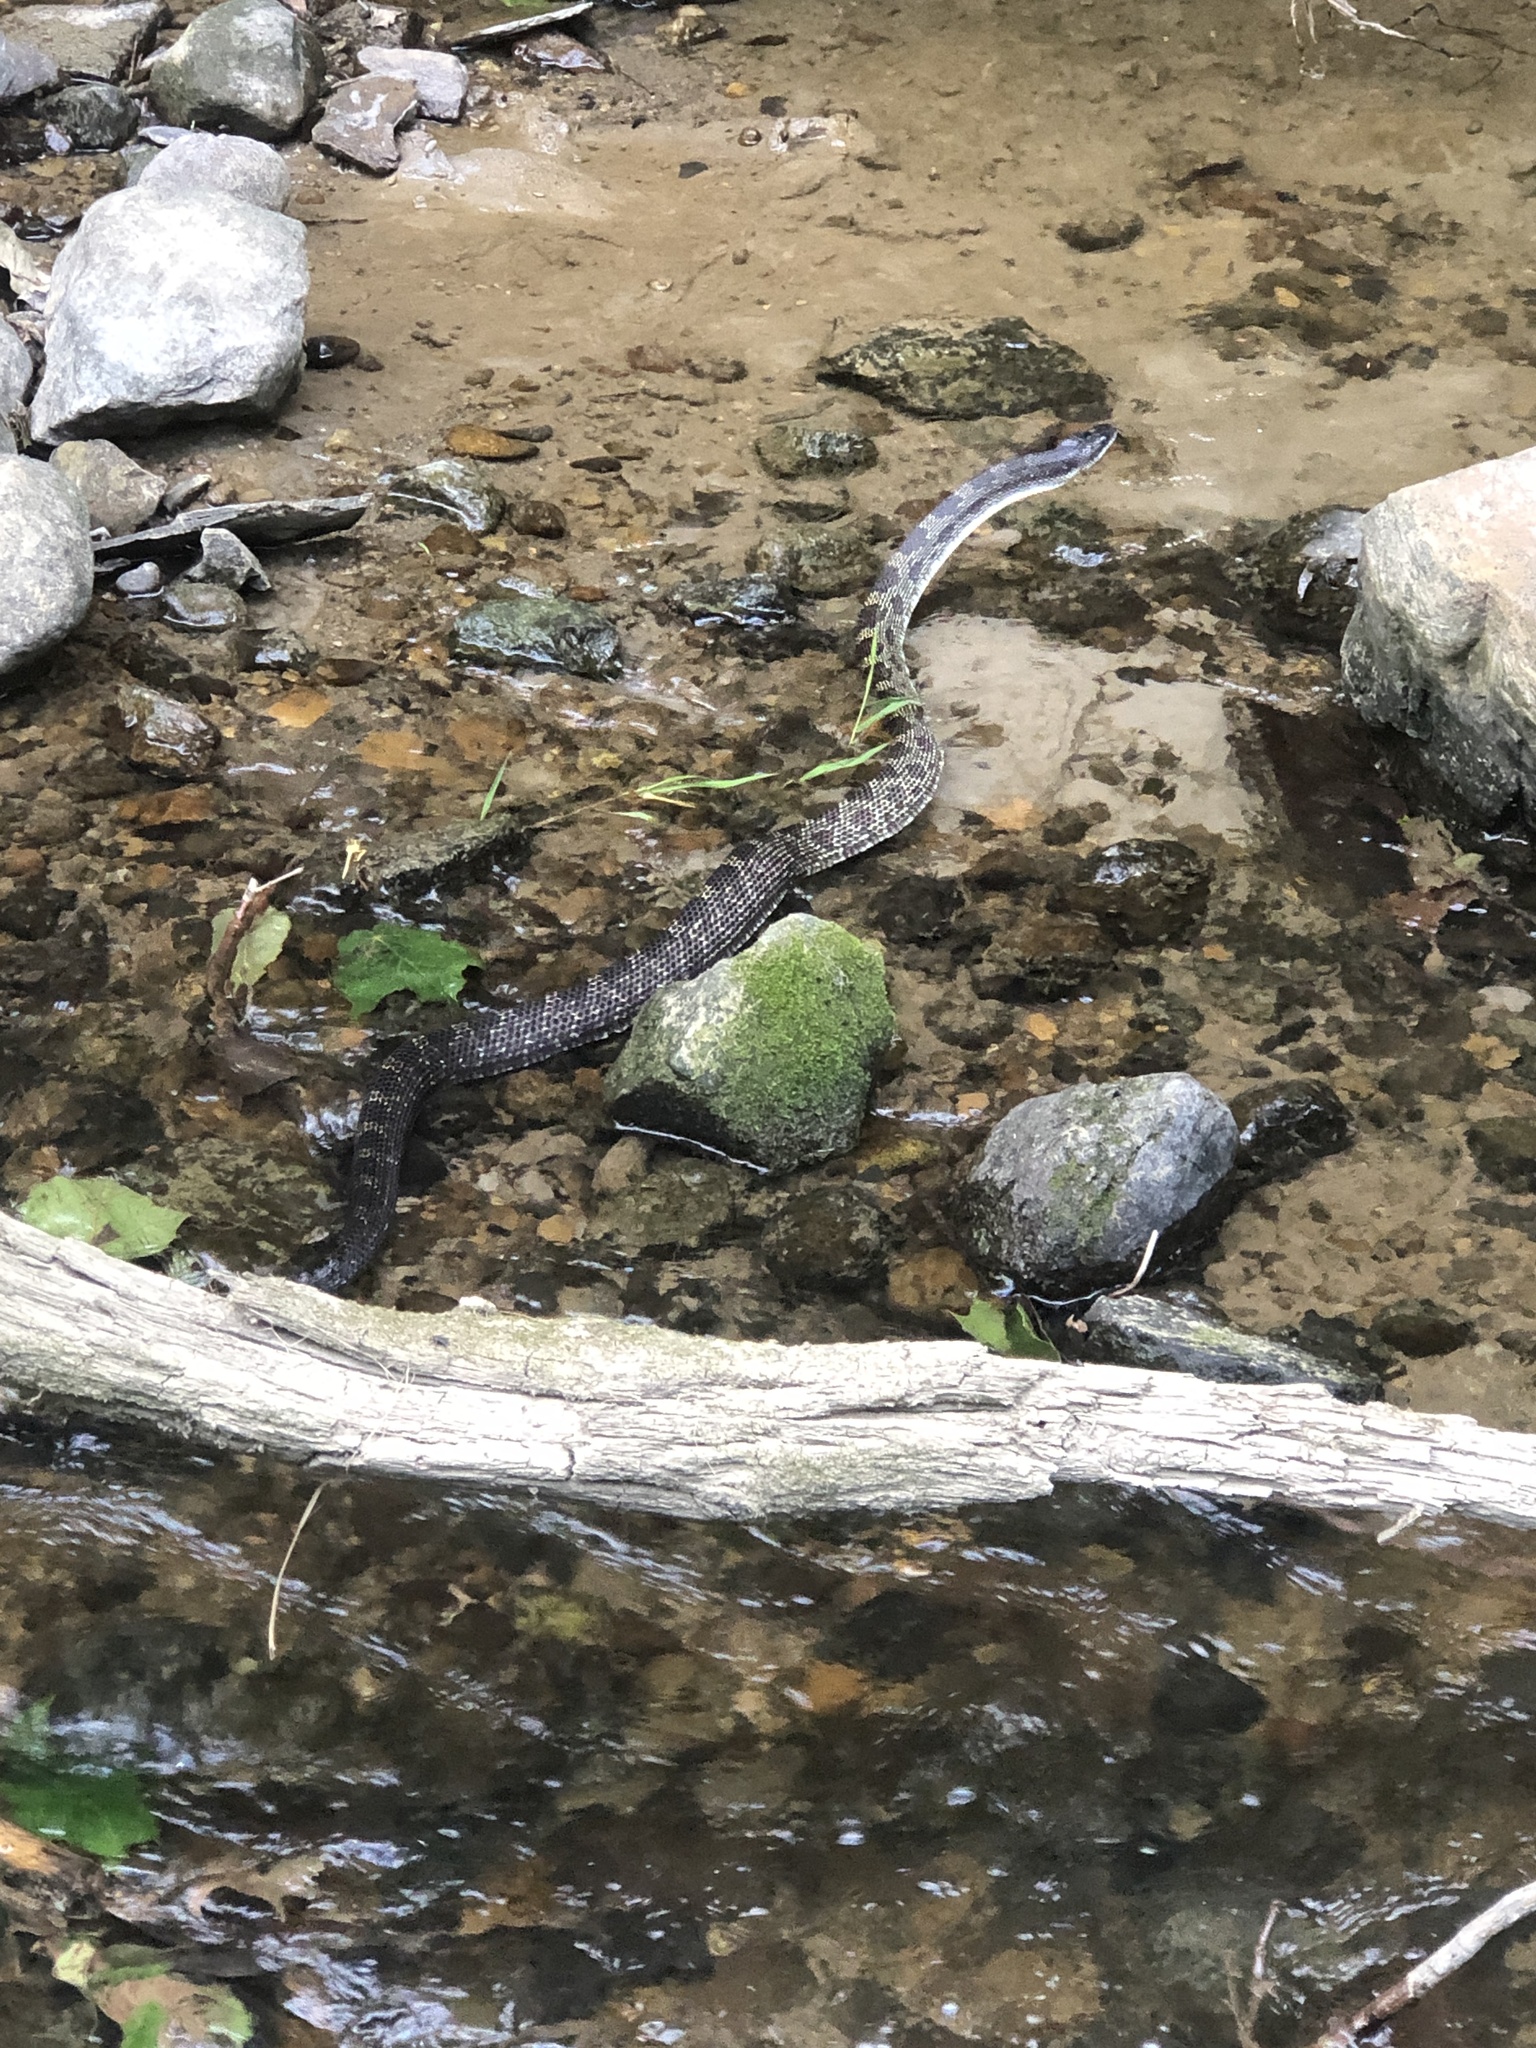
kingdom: Animalia
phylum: Chordata
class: Squamata
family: Colubridae
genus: Pantherophis
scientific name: Pantherophis spiloides
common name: Gray rat snake
